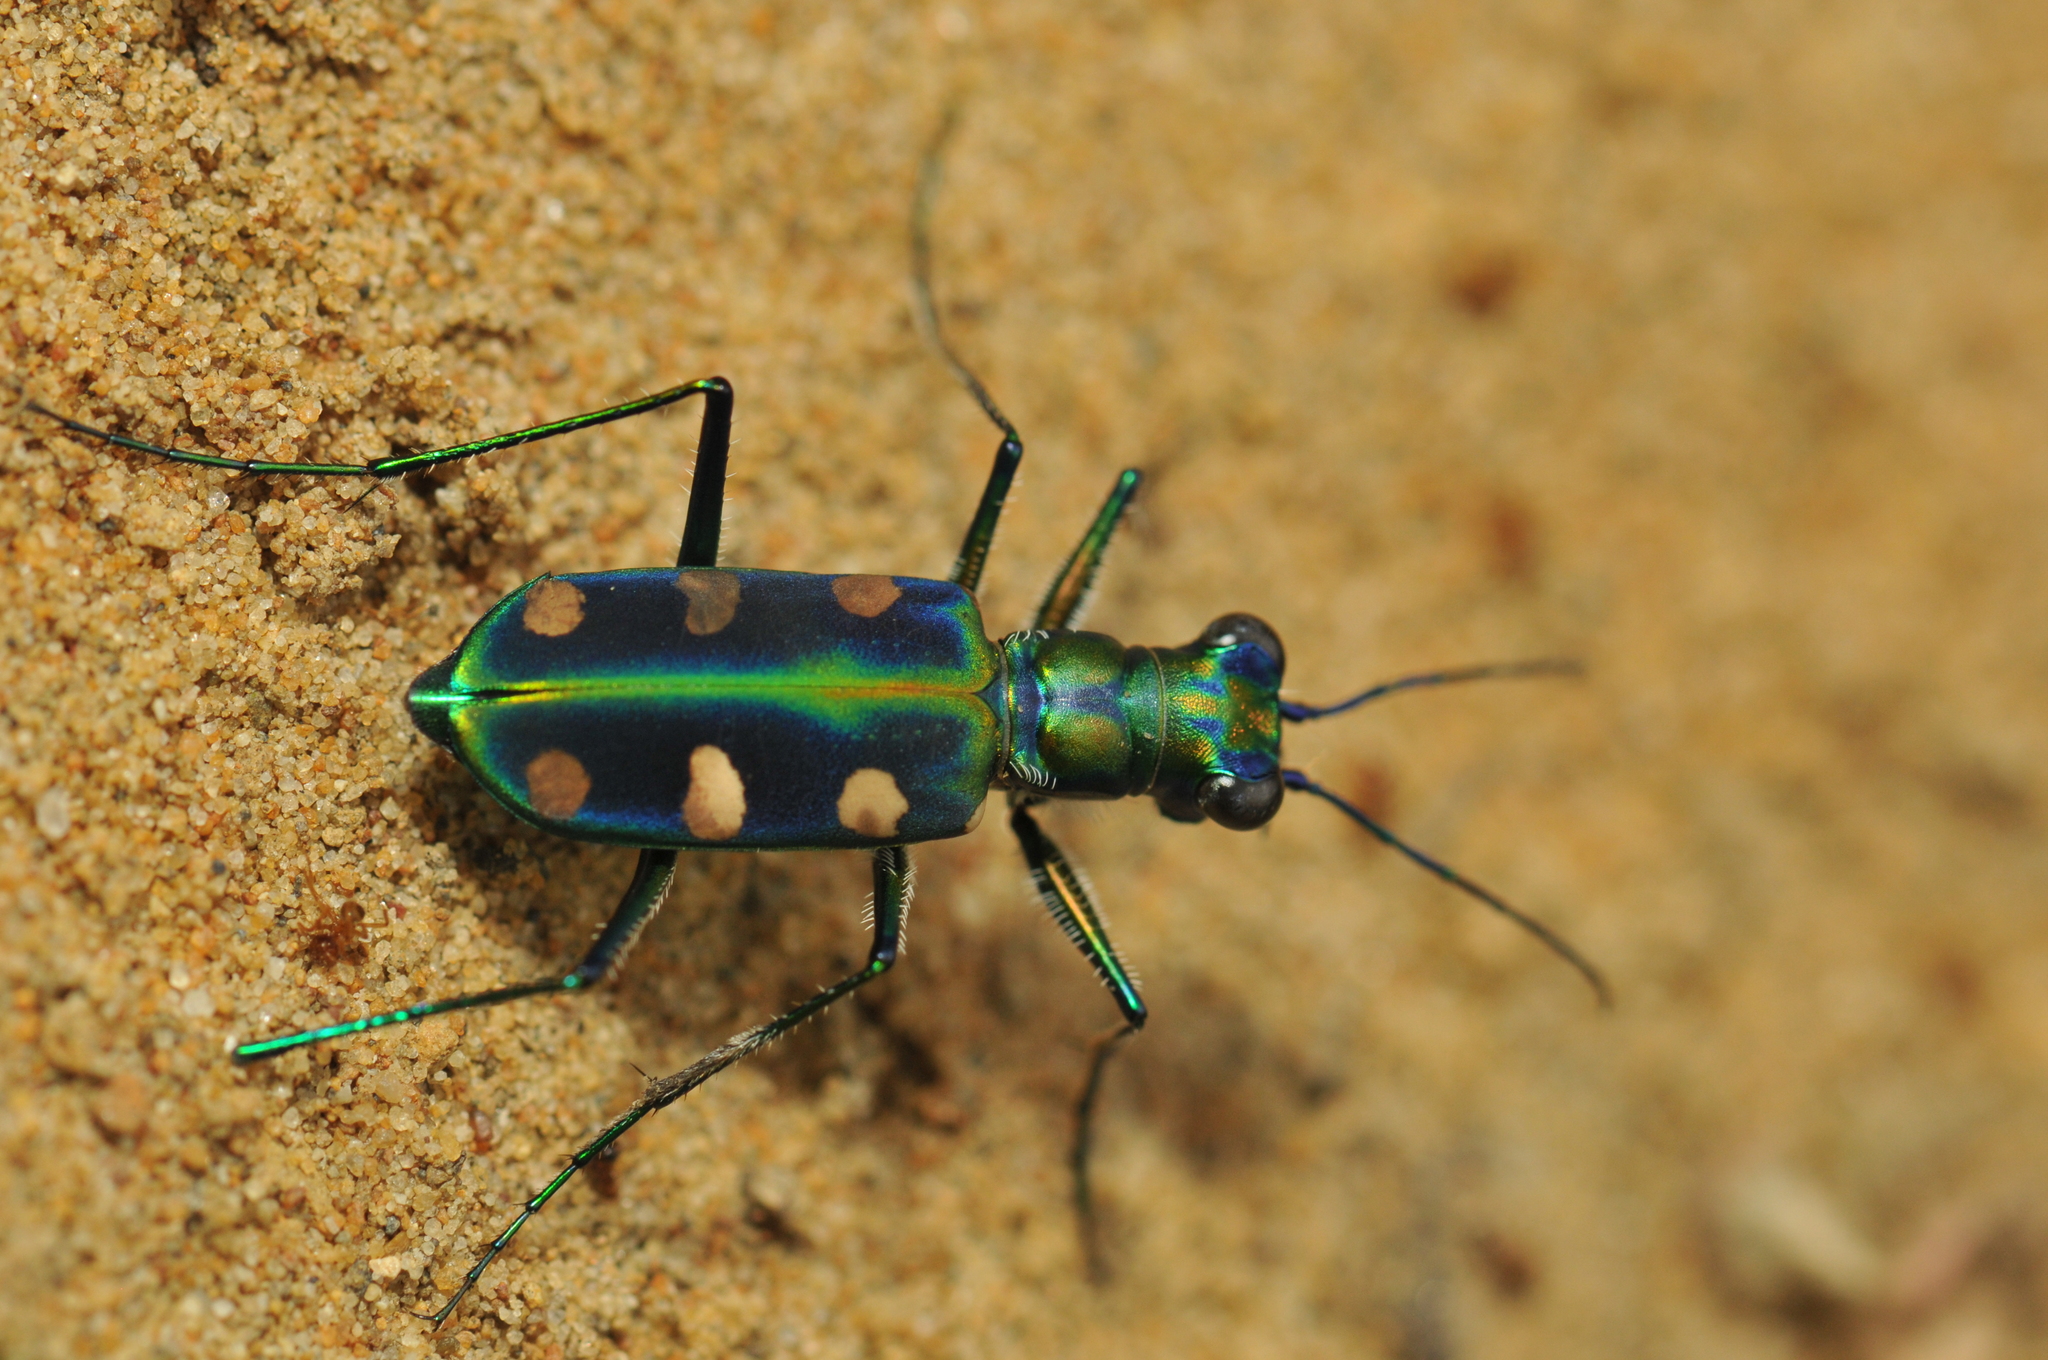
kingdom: Animalia
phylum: Arthropoda
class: Insecta
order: Coleoptera
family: Carabidae
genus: Cicindela
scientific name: Cicindela batesi
